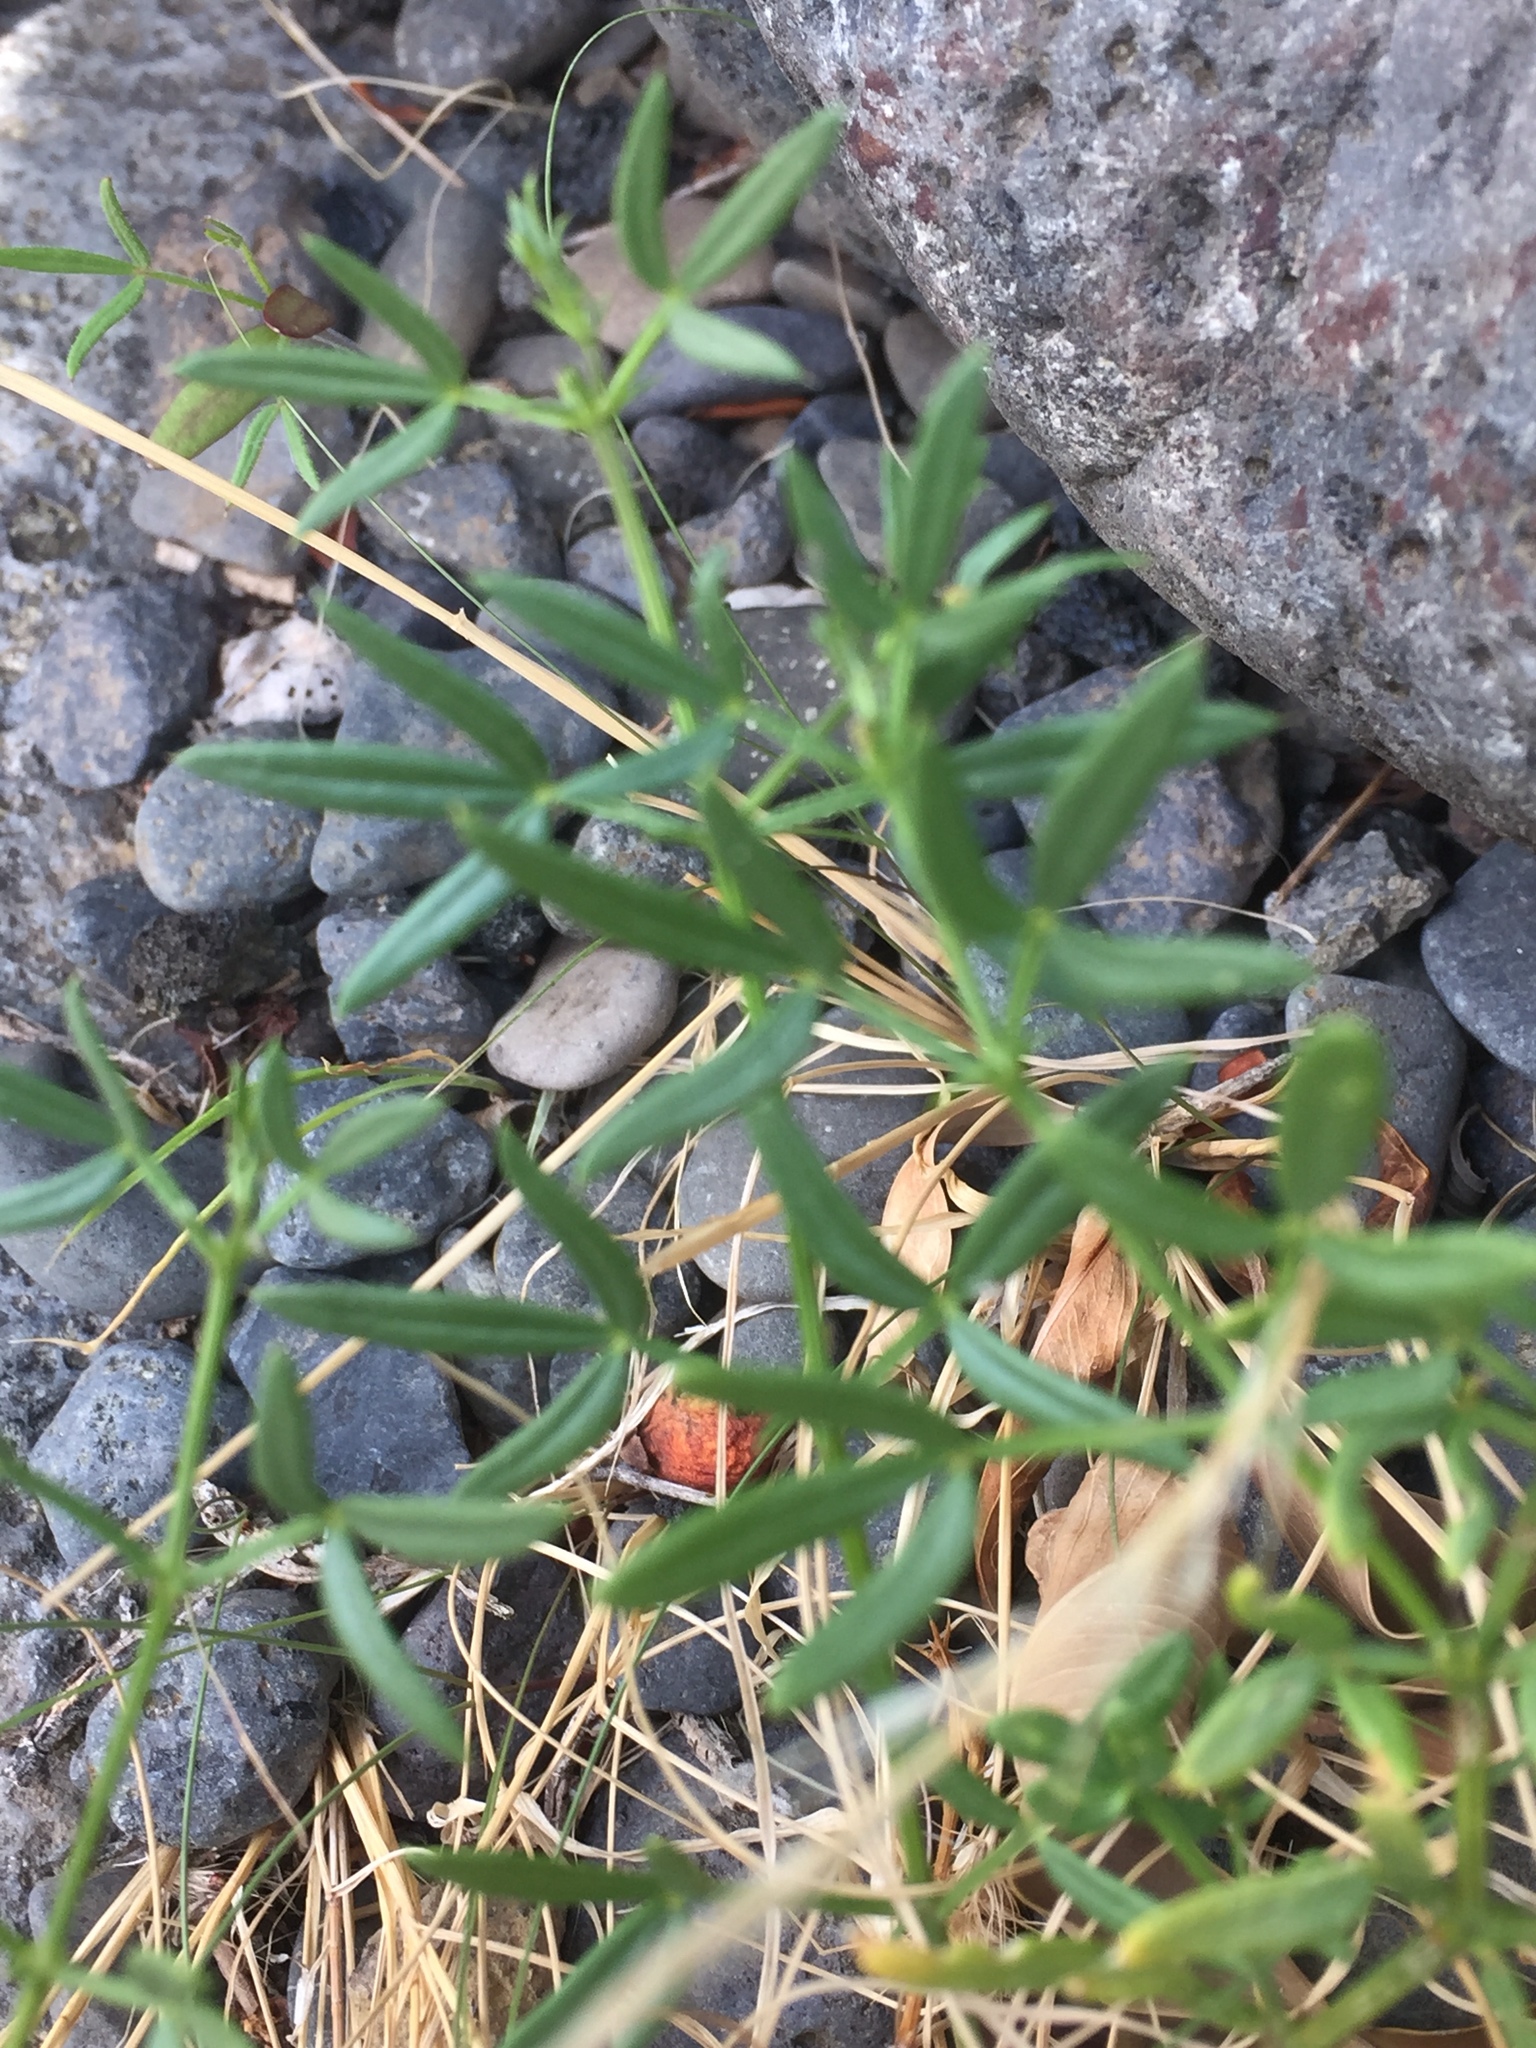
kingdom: Plantae
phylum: Tracheophyta
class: Magnoliopsida
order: Zygophyllales
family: Zygophyllaceae
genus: Fagonia
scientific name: Fagonia cretica
